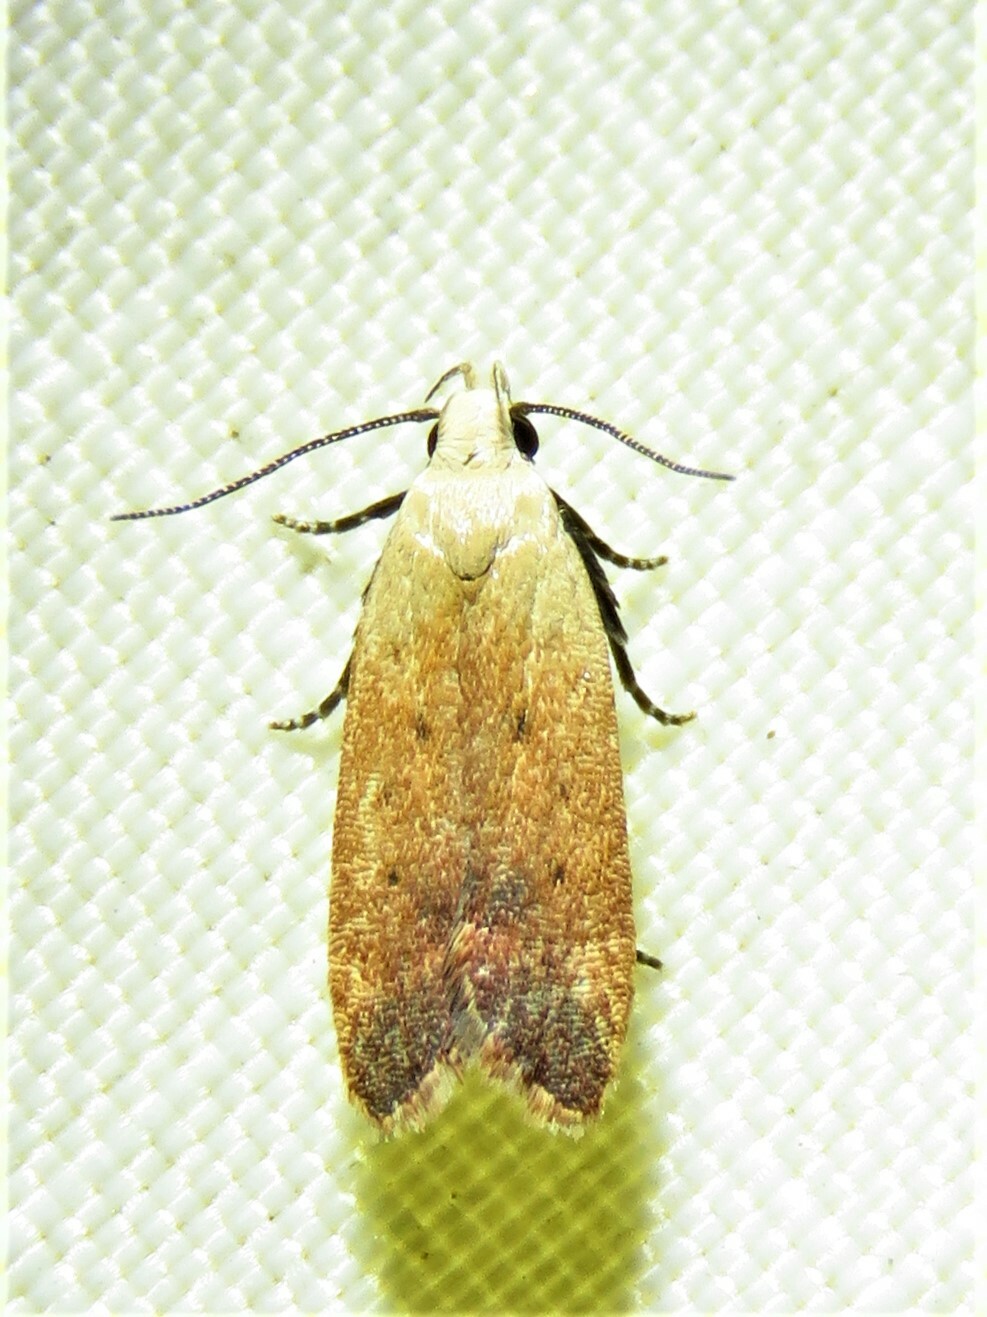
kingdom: Animalia
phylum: Arthropoda
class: Insecta
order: Lepidoptera
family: Gelechiidae
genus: Anacampsis
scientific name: Anacampsis fullonella
